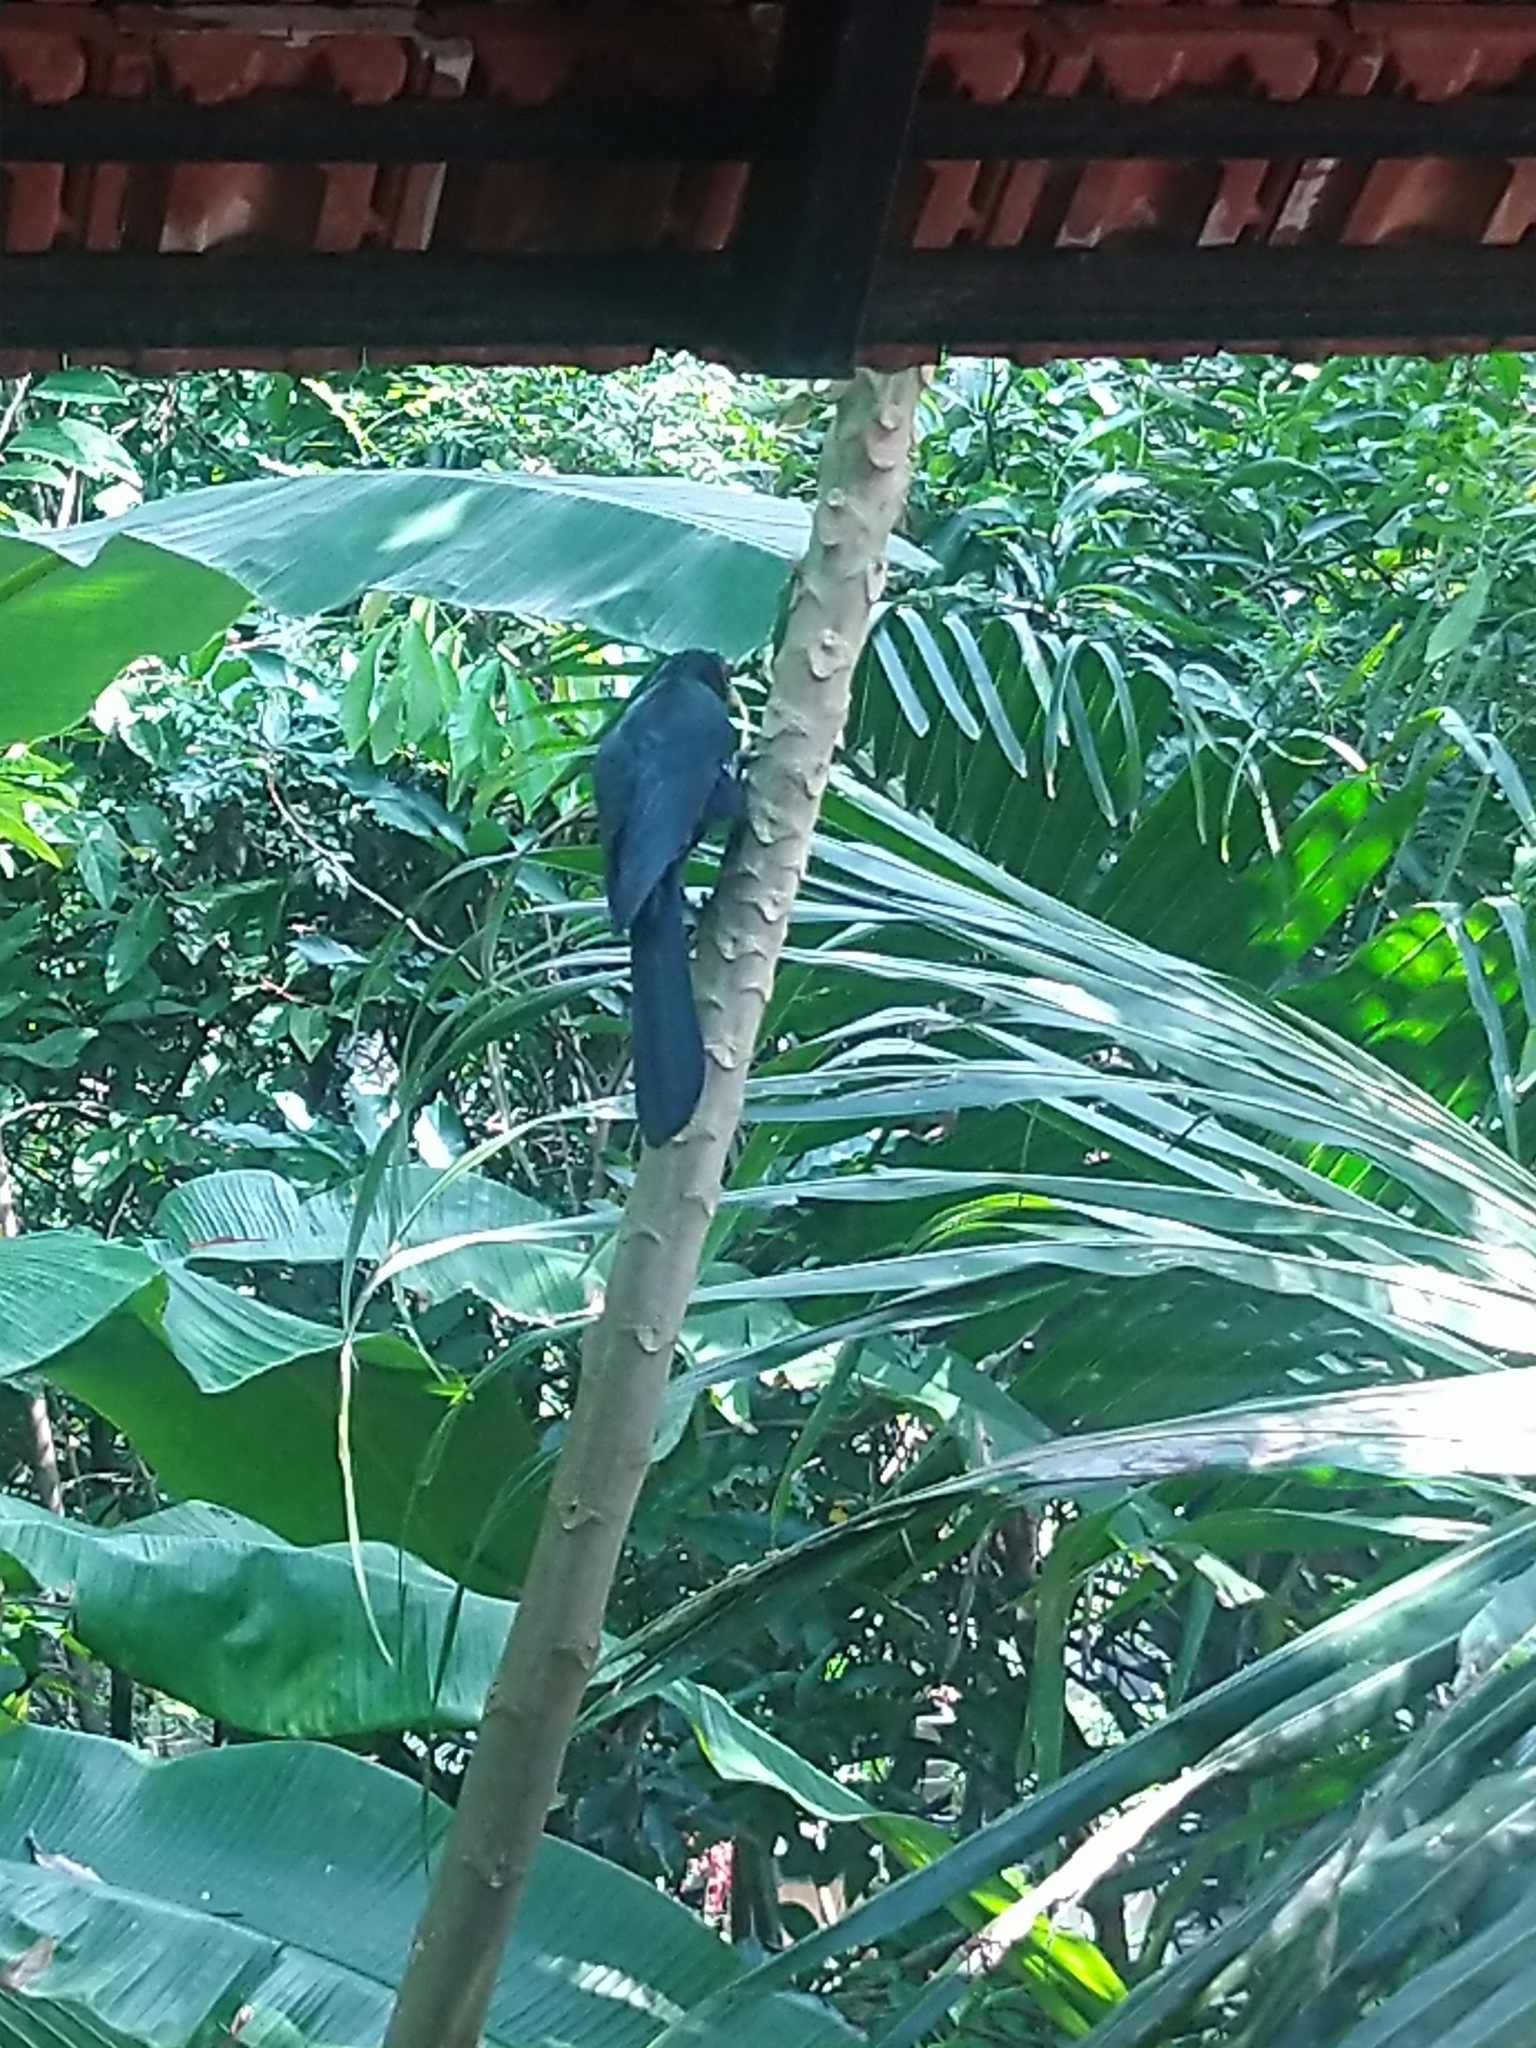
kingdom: Animalia
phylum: Chordata
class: Aves
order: Cuculiformes
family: Cuculidae
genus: Eudynamys
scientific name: Eudynamys scolopaceus
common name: Asian koel
